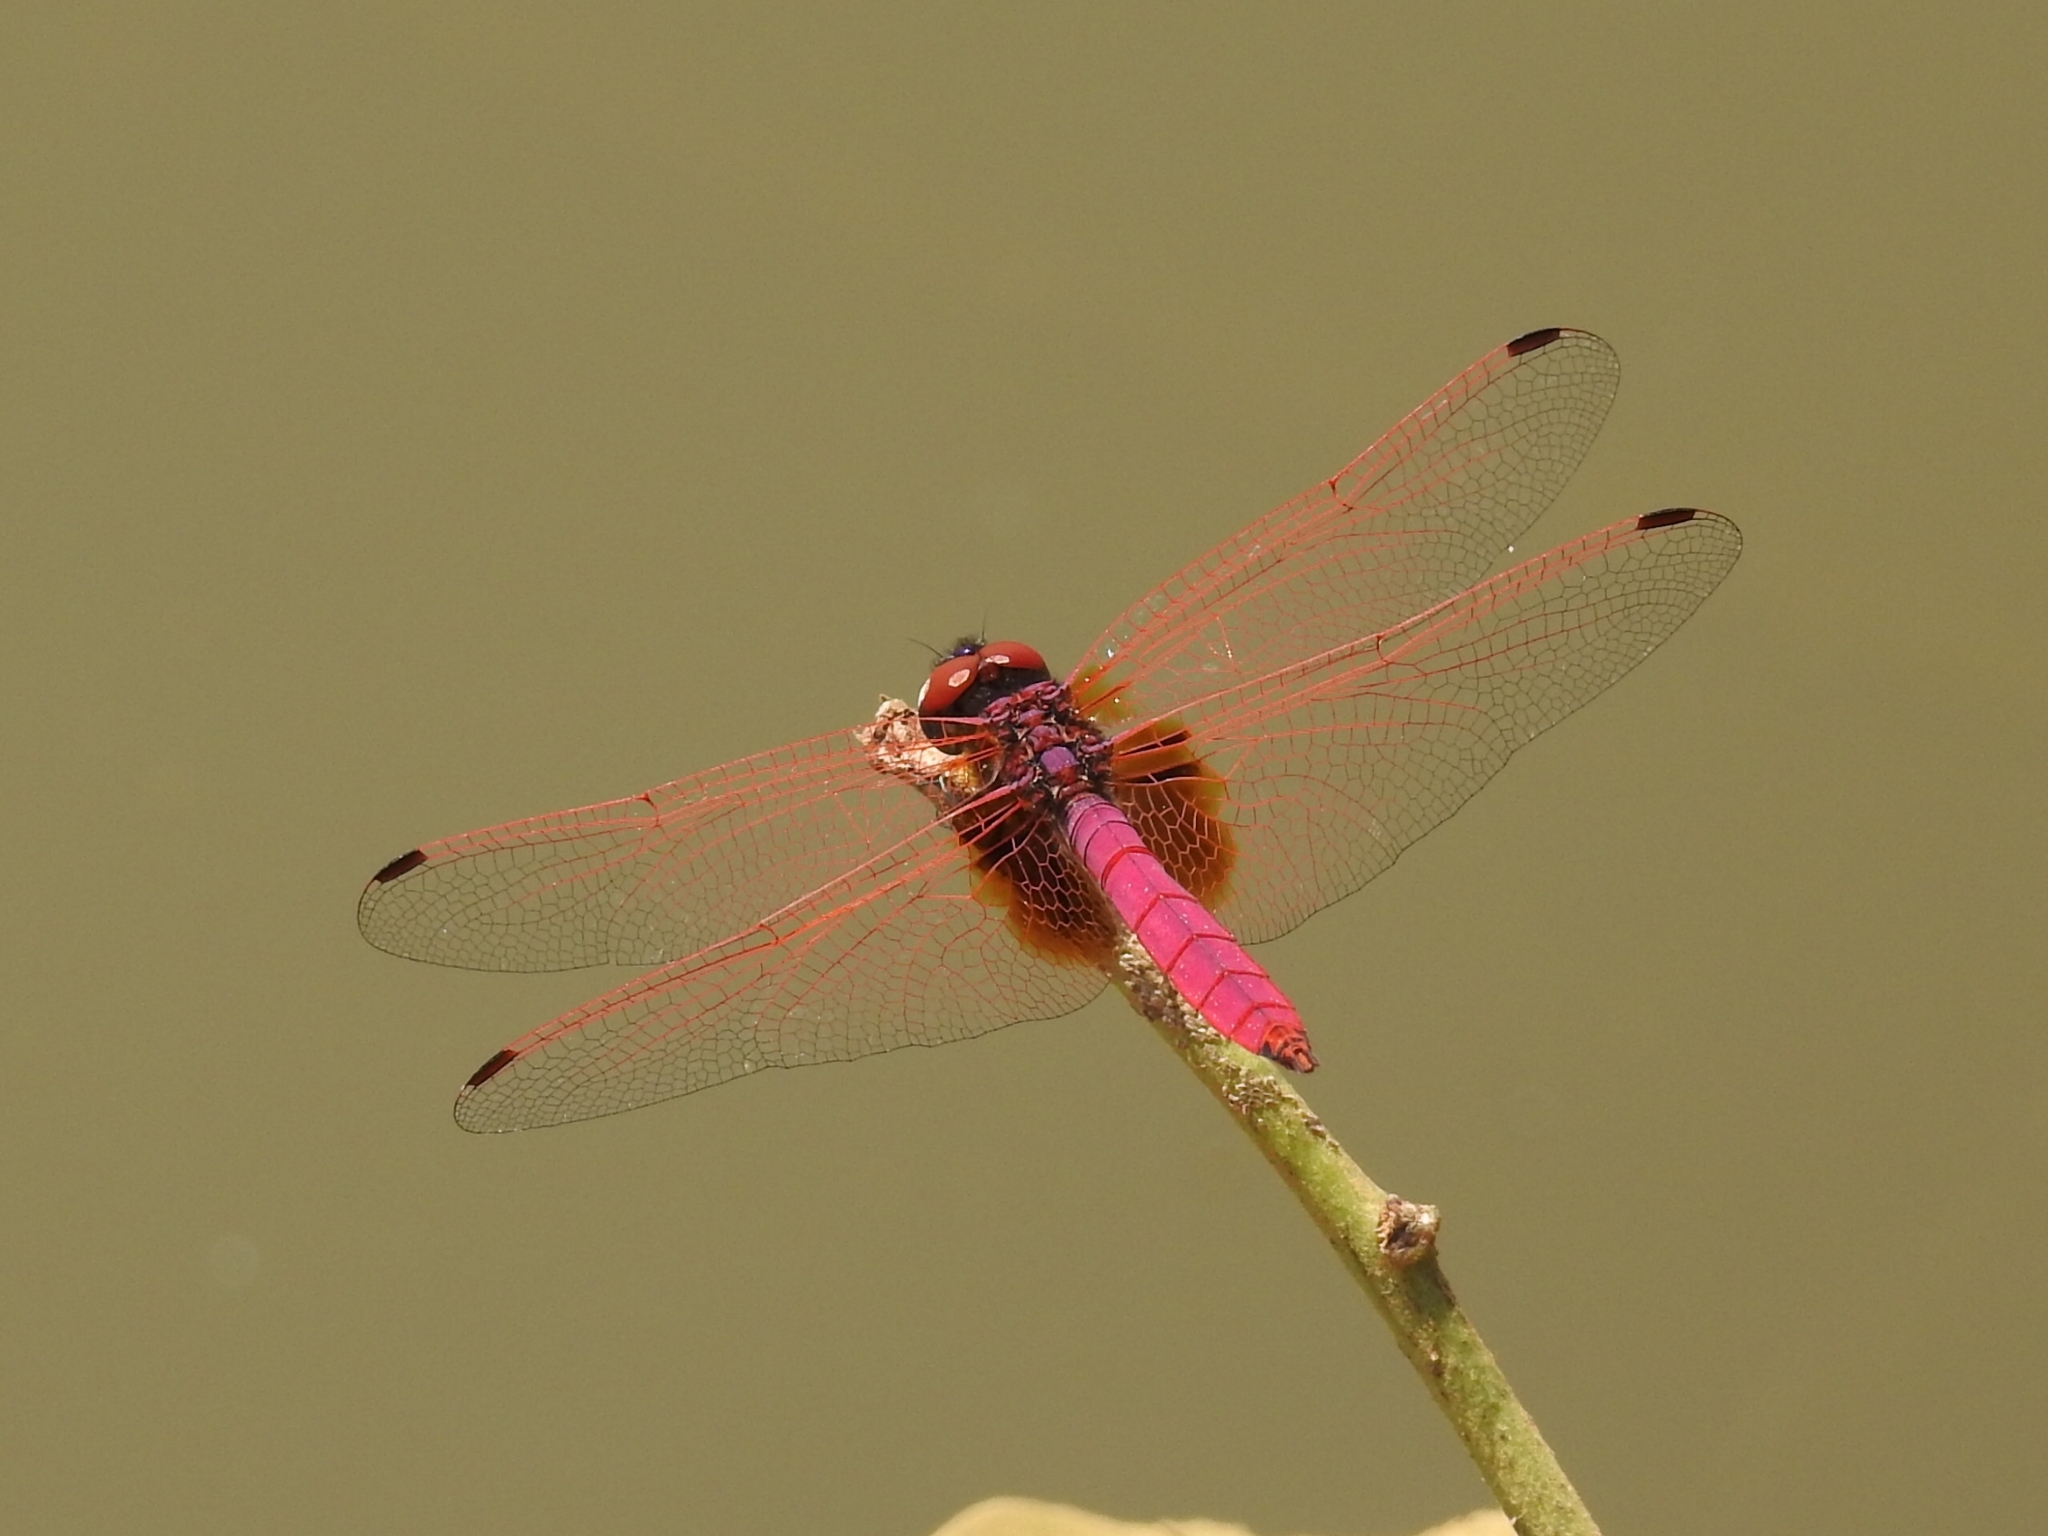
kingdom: Animalia
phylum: Arthropoda
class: Insecta
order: Odonata
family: Libellulidae
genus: Trithemis
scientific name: Trithemis aurora
